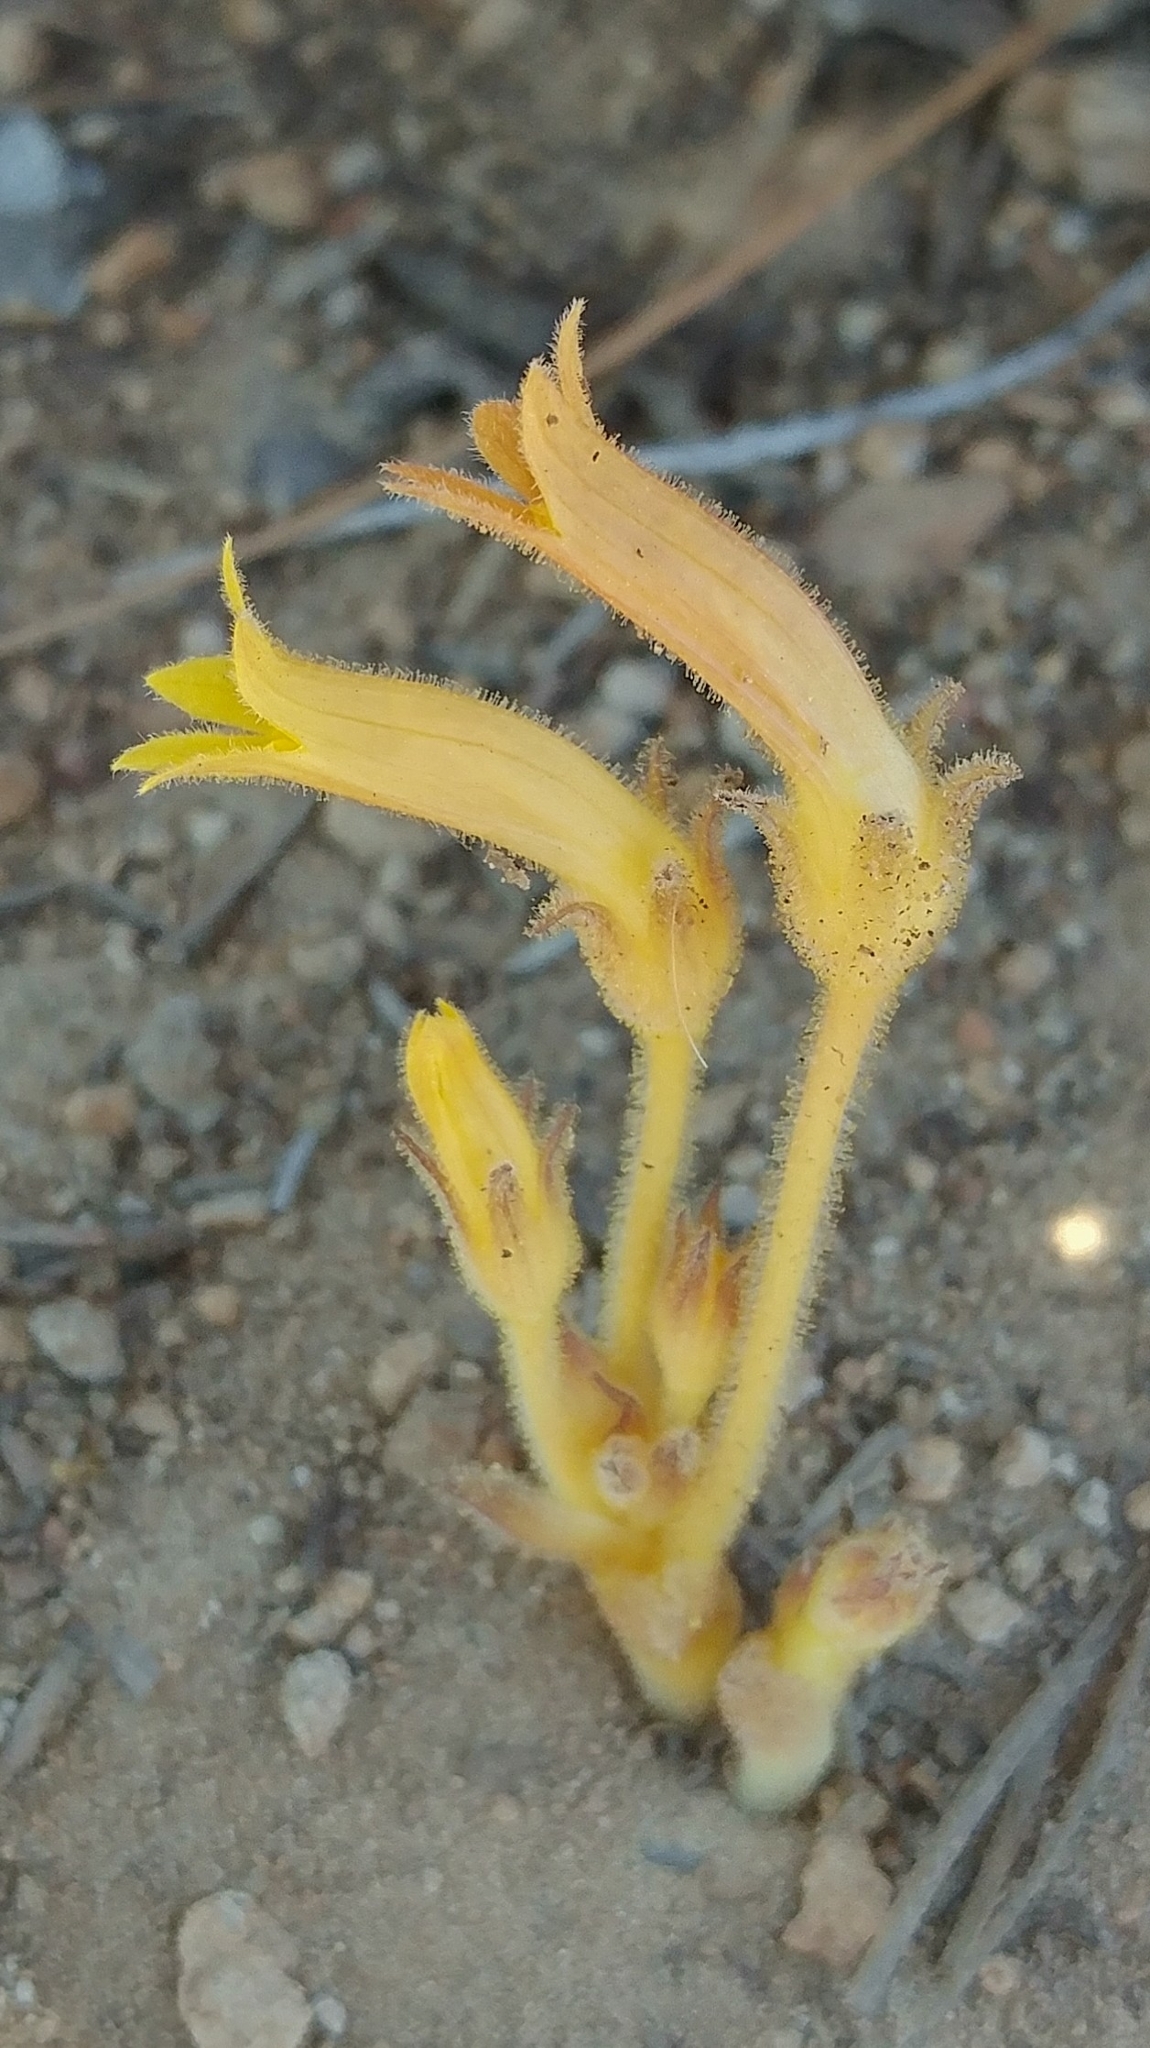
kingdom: Plantae
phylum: Tracheophyta
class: Magnoliopsida
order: Lamiales
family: Orobanchaceae
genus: Aphyllon
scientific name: Aphyllon franciscanum
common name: San francisco broomrape
